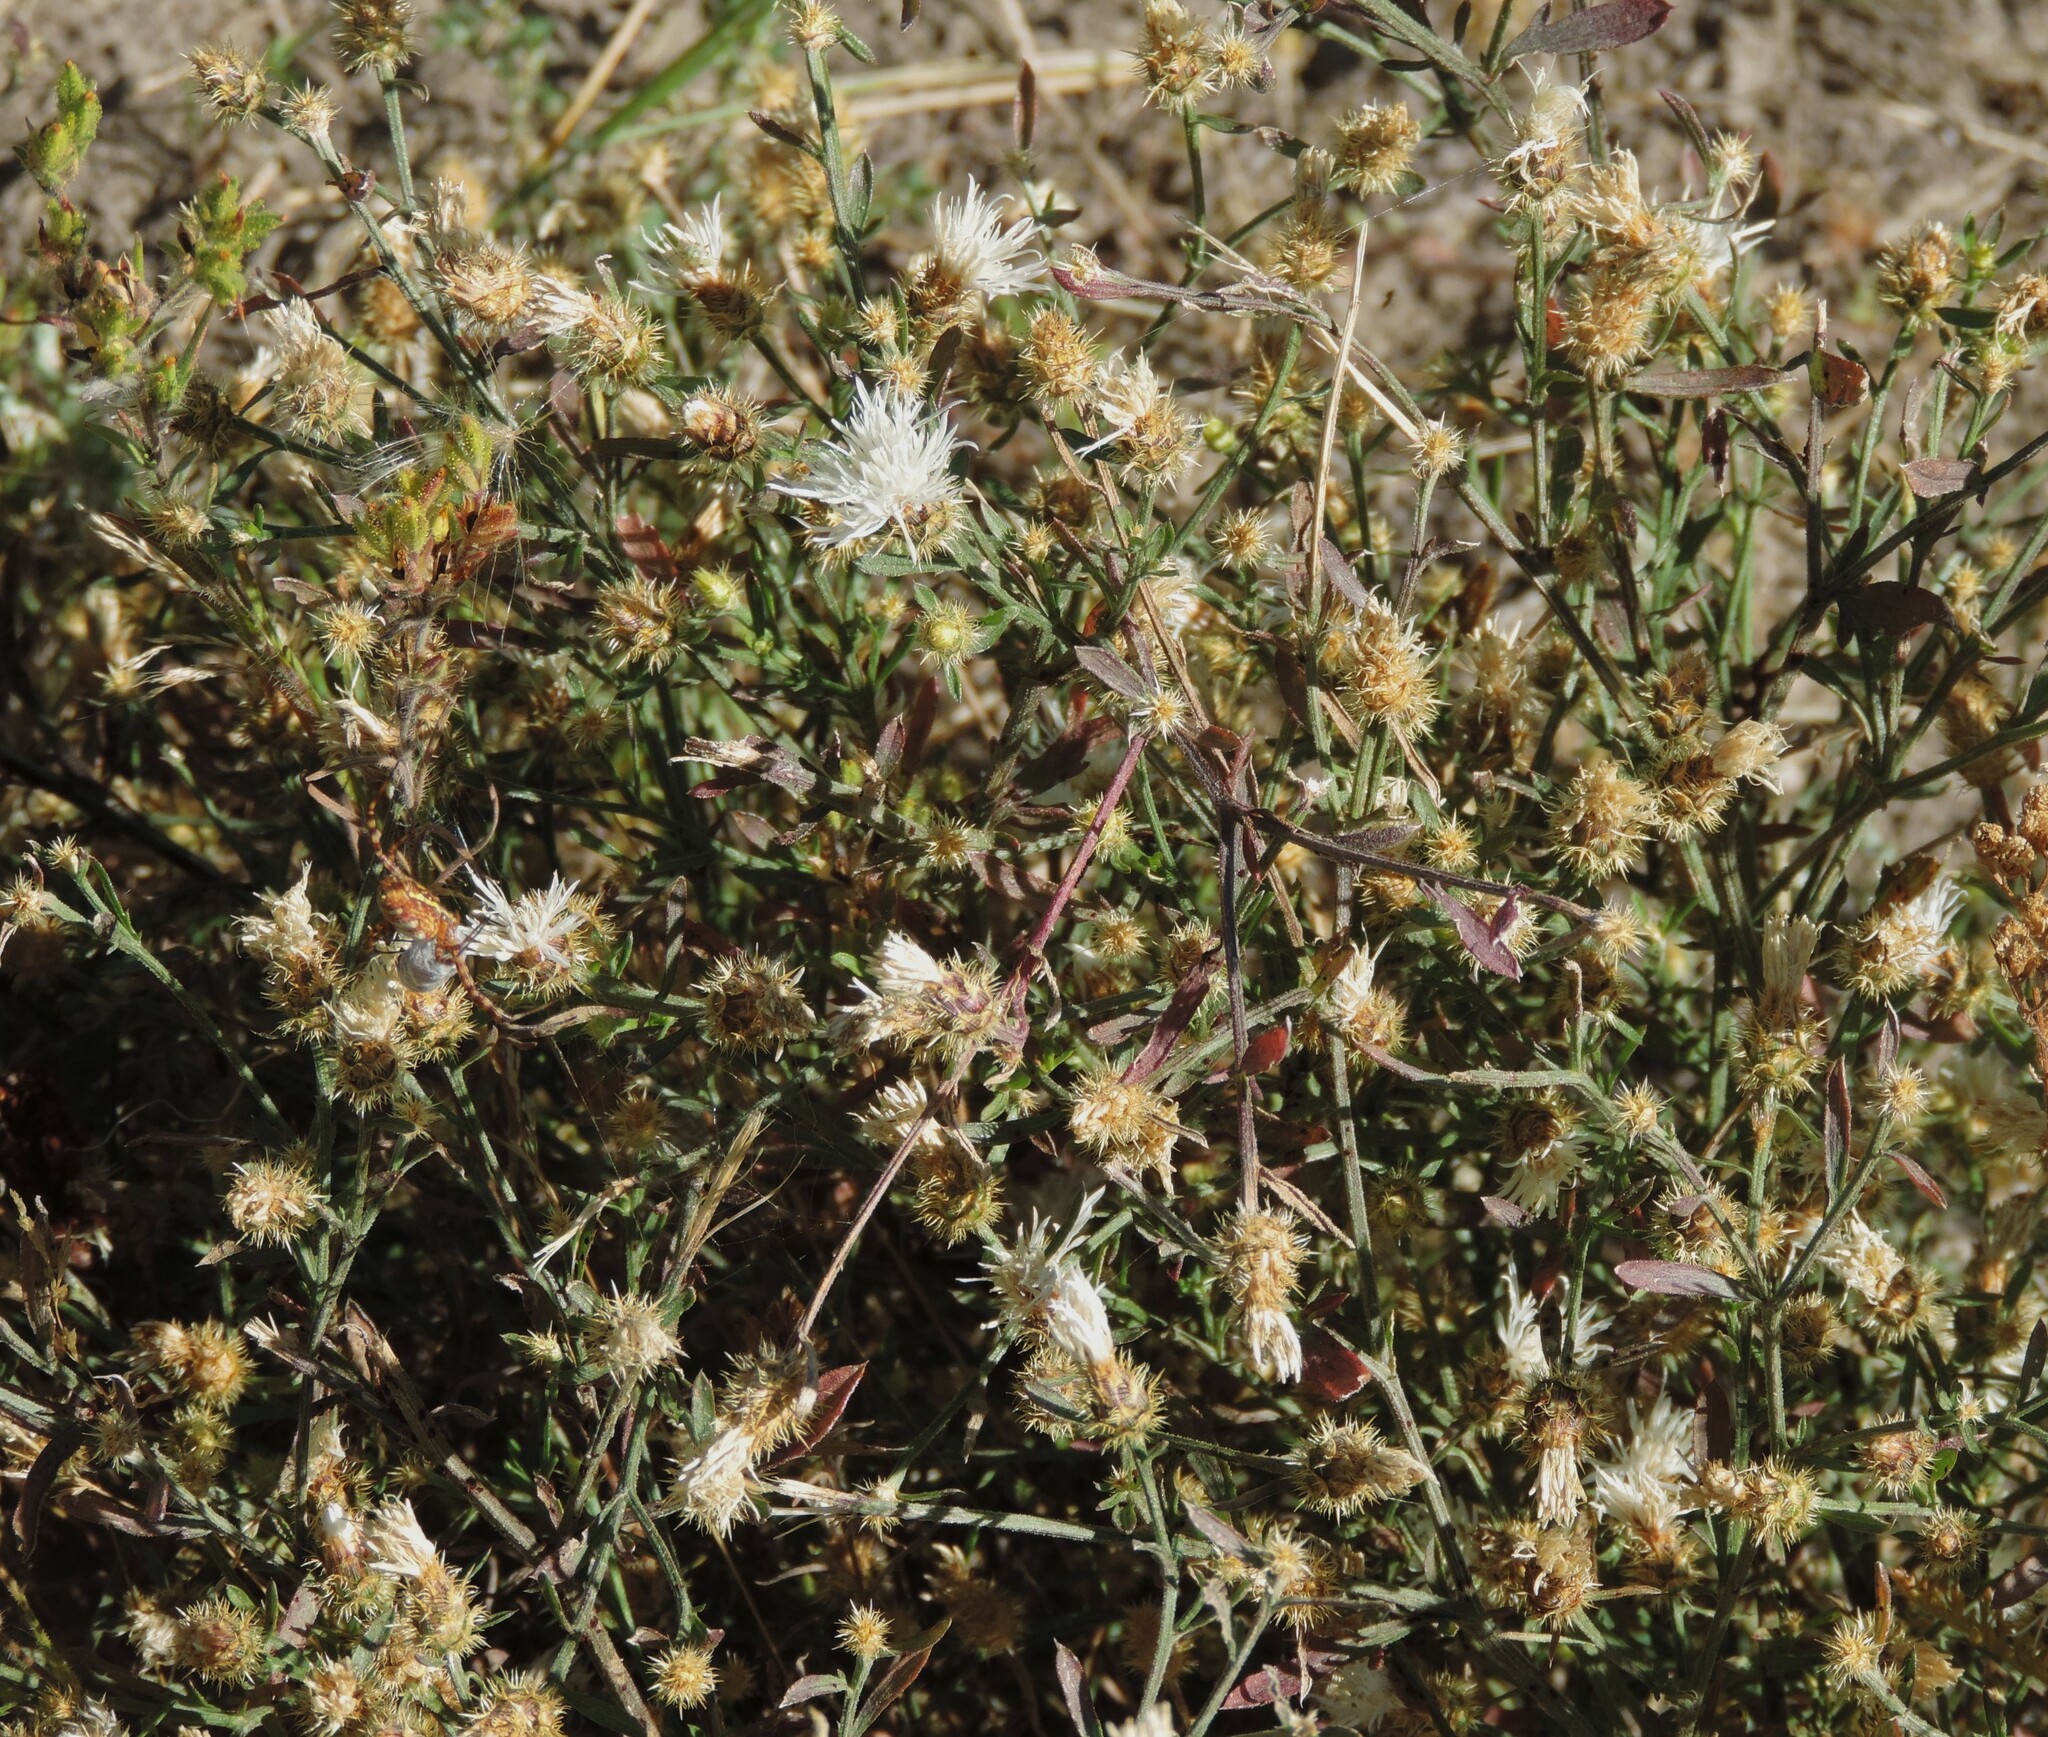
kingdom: Plantae
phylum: Tracheophyta
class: Magnoliopsida
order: Asterales
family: Asteraceae
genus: Centaurea
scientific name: Centaurea diffusa
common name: Diffuse knapweed
